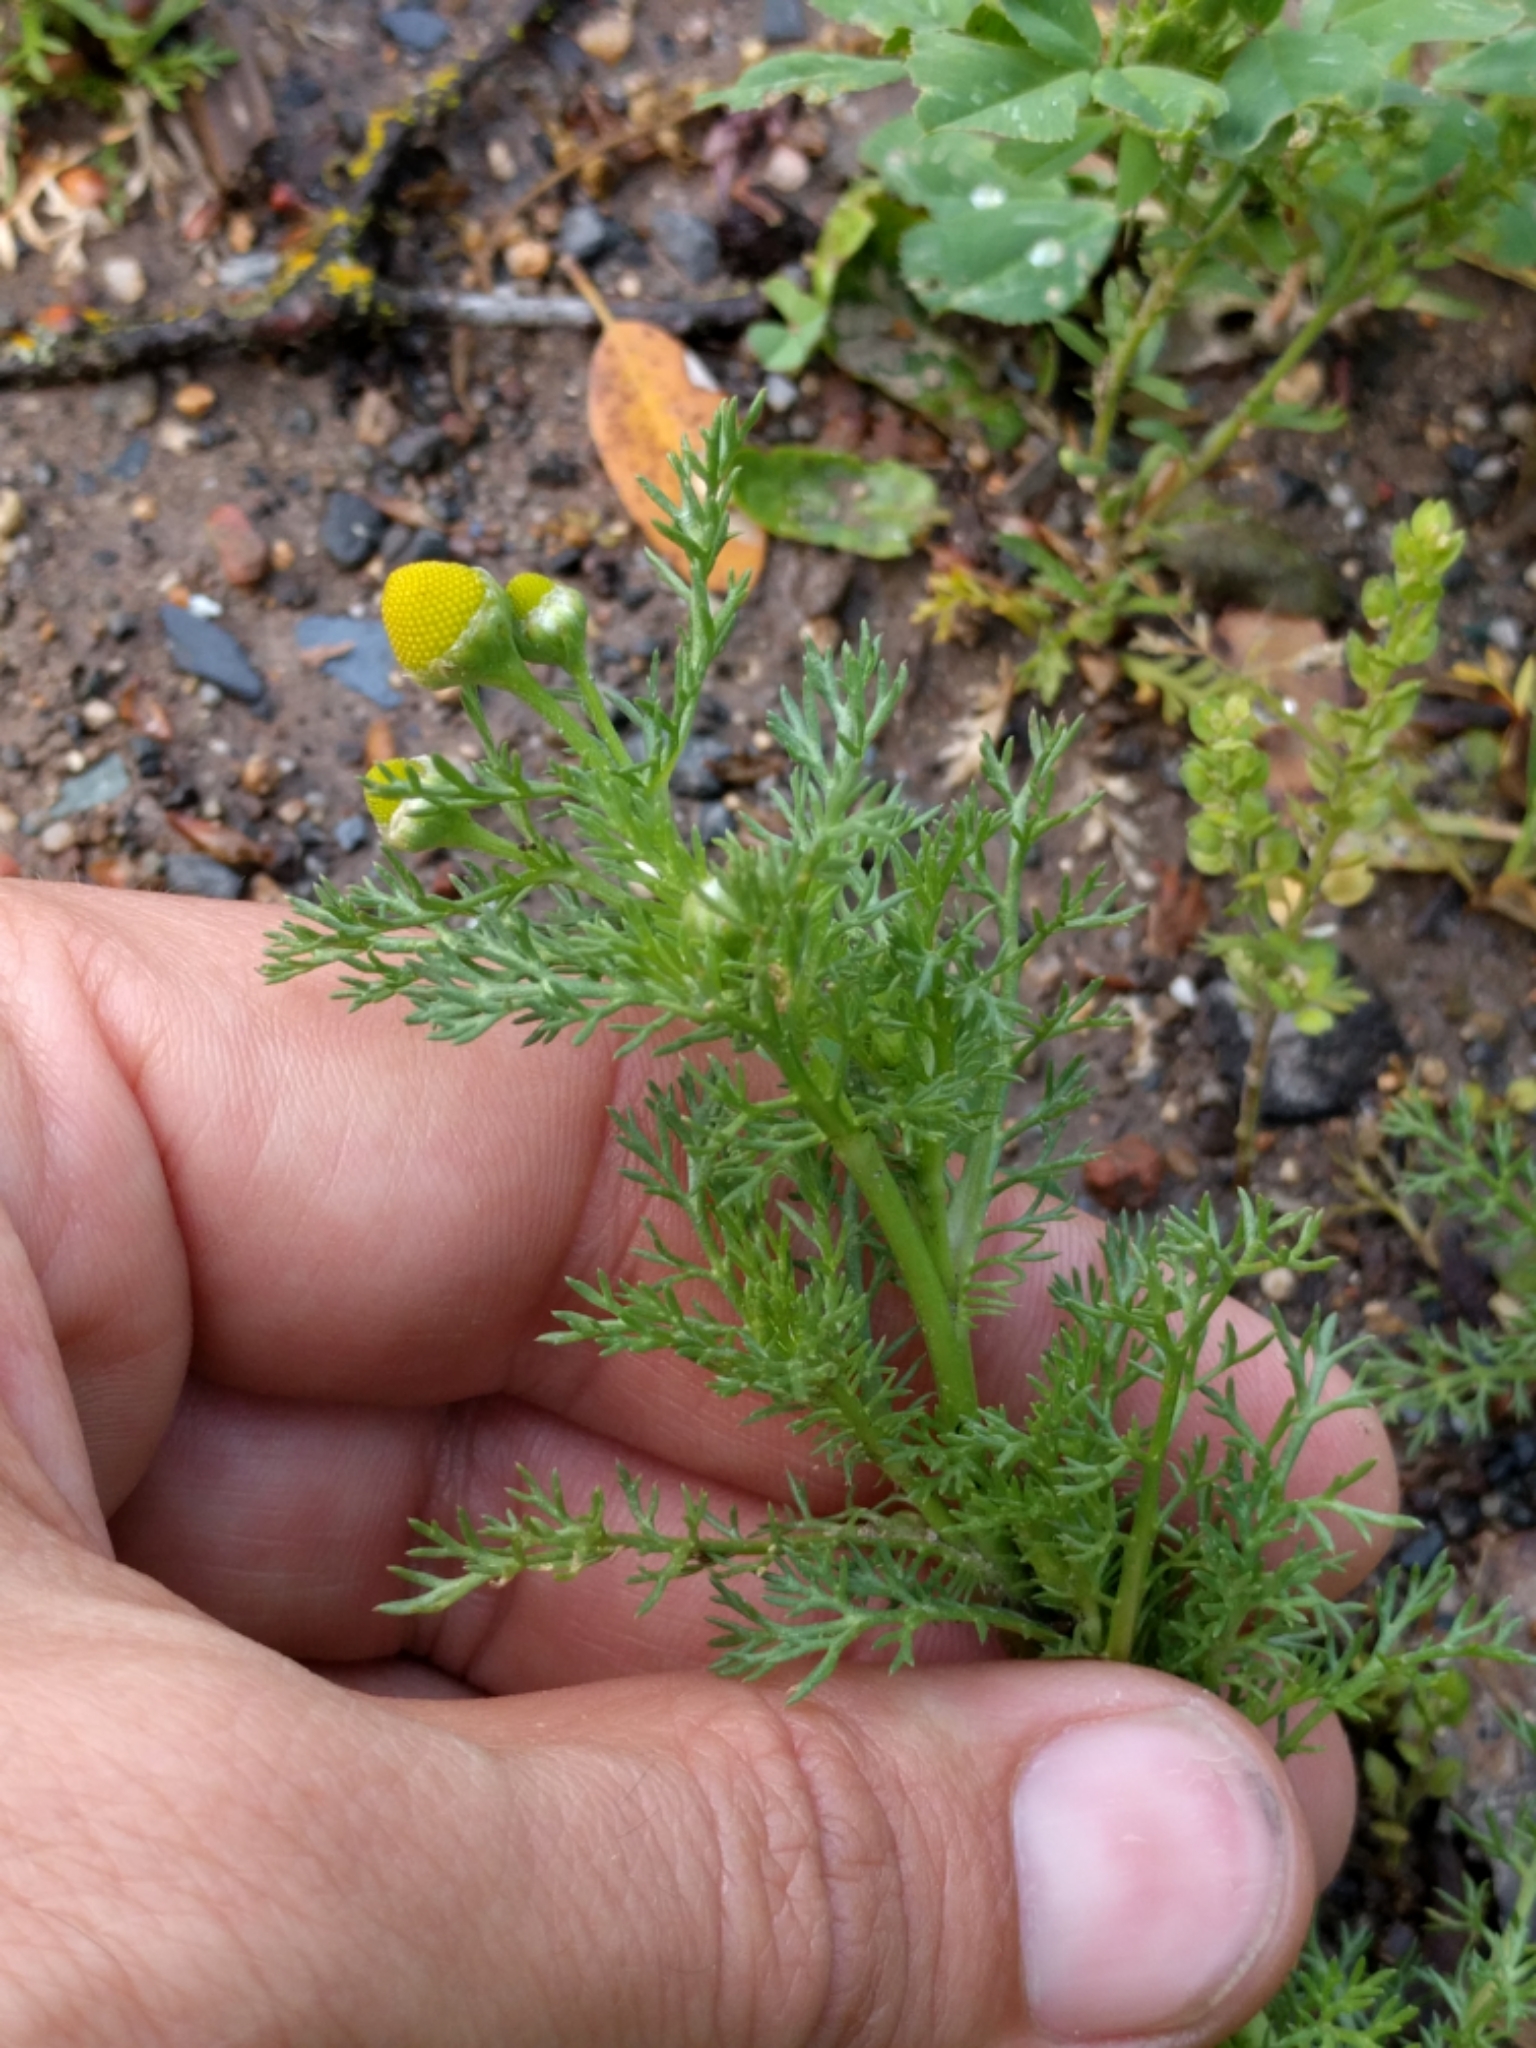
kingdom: Plantae
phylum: Tracheophyta
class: Magnoliopsida
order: Asterales
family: Asteraceae
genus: Matricaria
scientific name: Matricaria discoidea
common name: Disc mayweed
